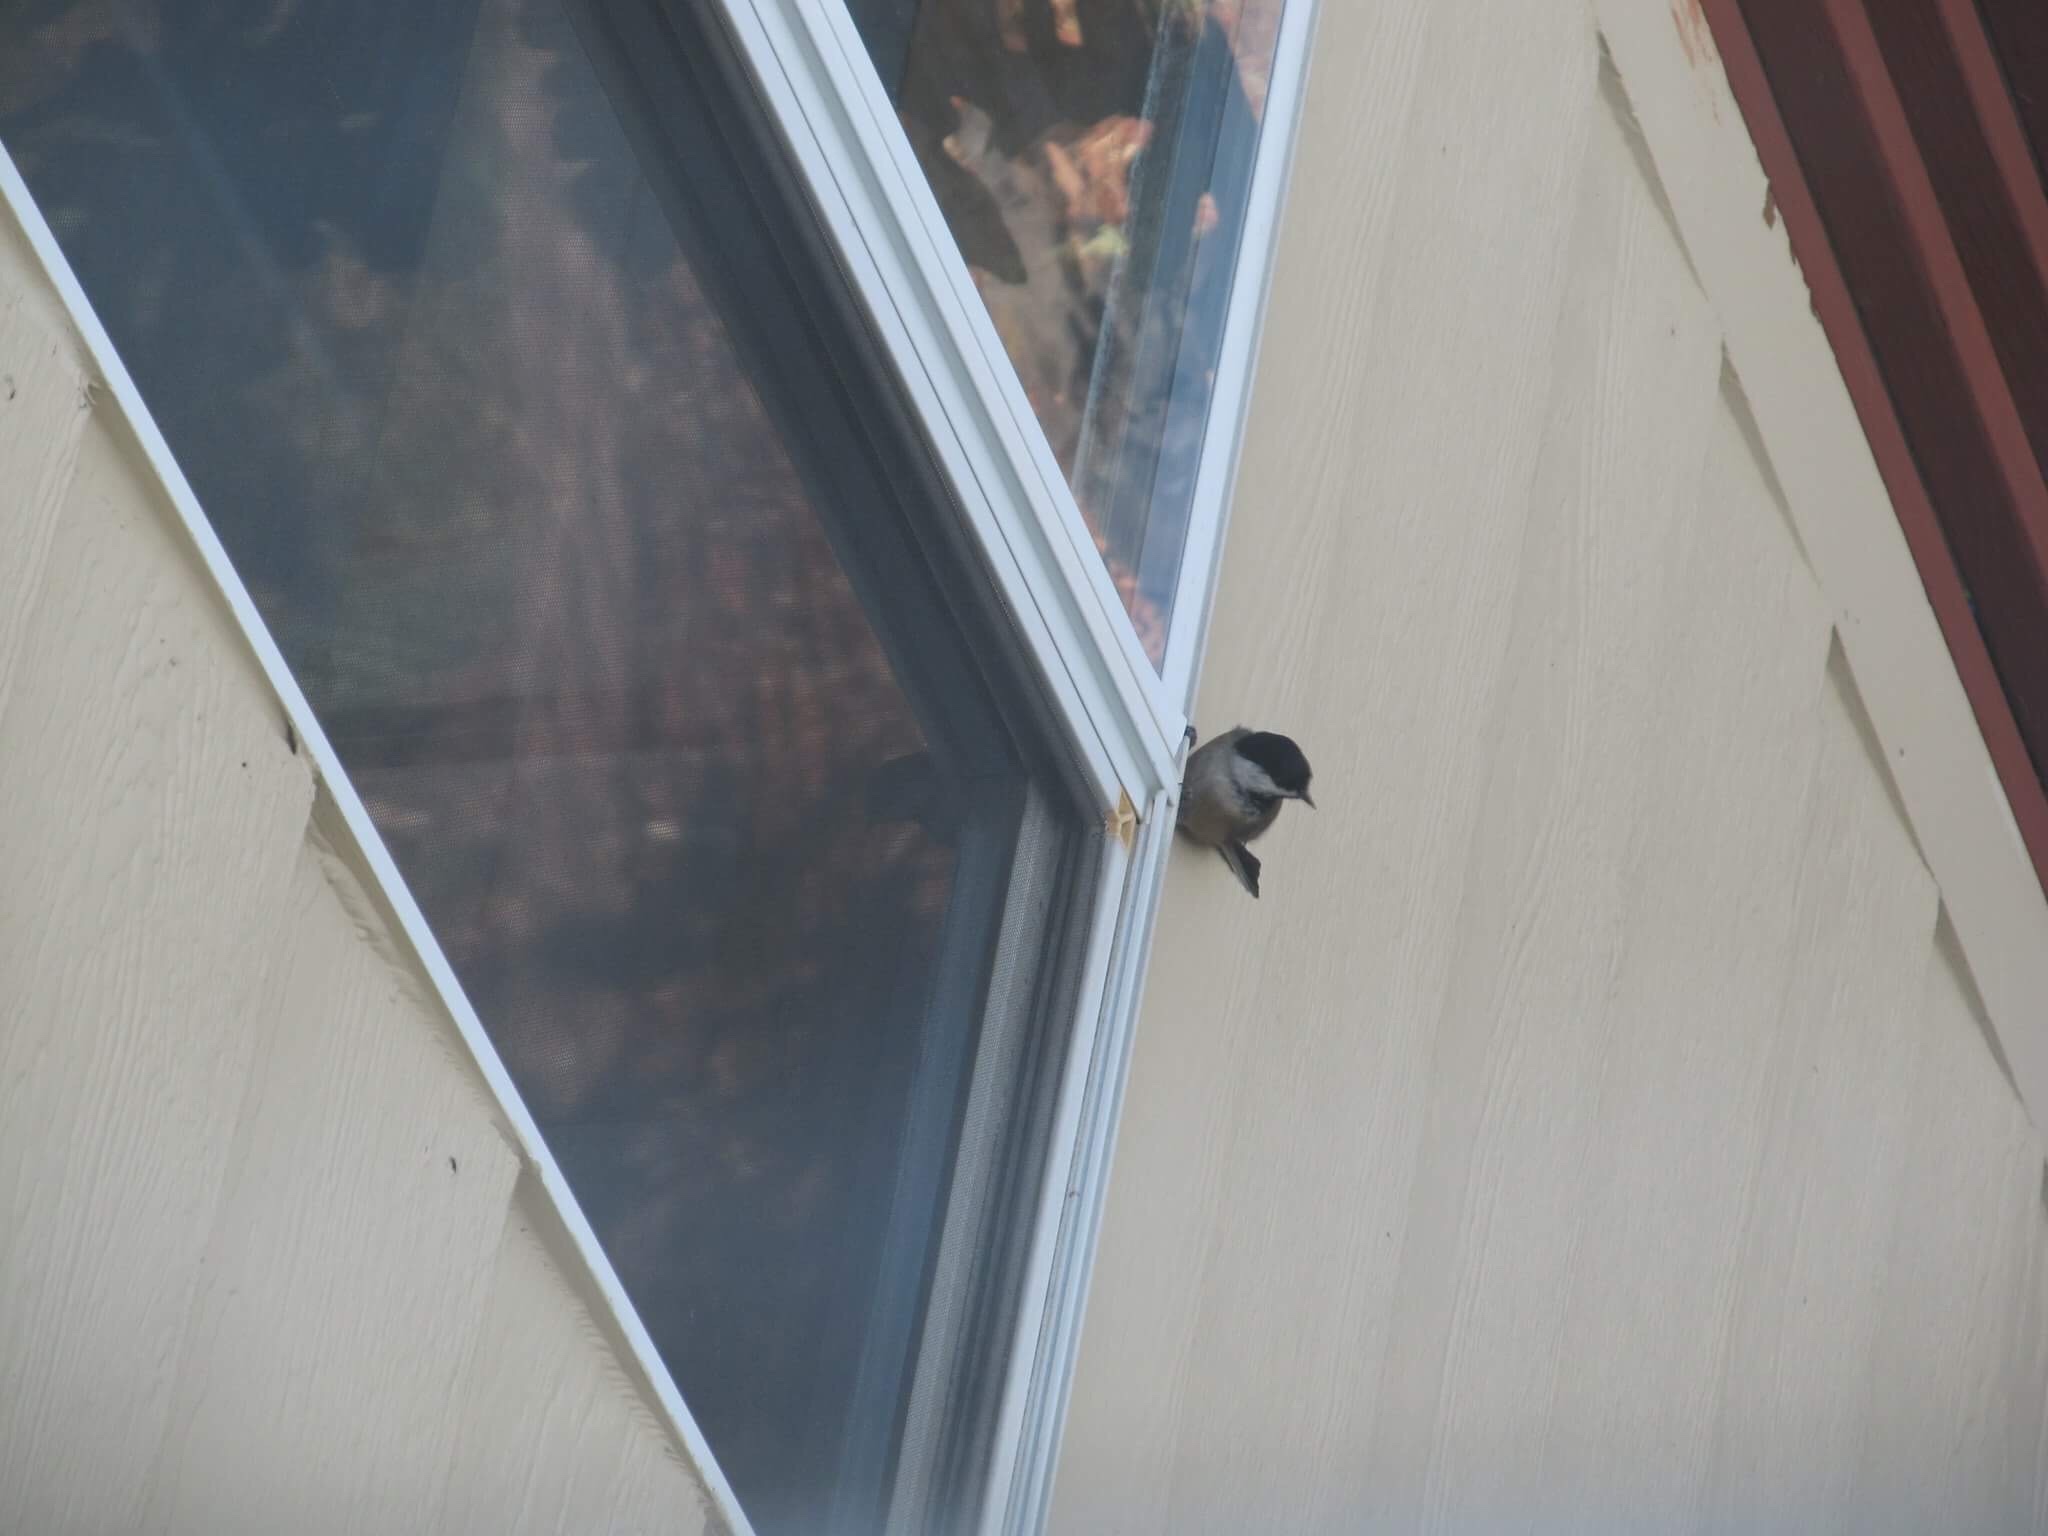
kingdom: Animalia
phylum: Chordata
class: Aves
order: Passeriformes
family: Paridae
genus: Poecile
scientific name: Poecile atricapillus
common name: Black-capped chickadee
